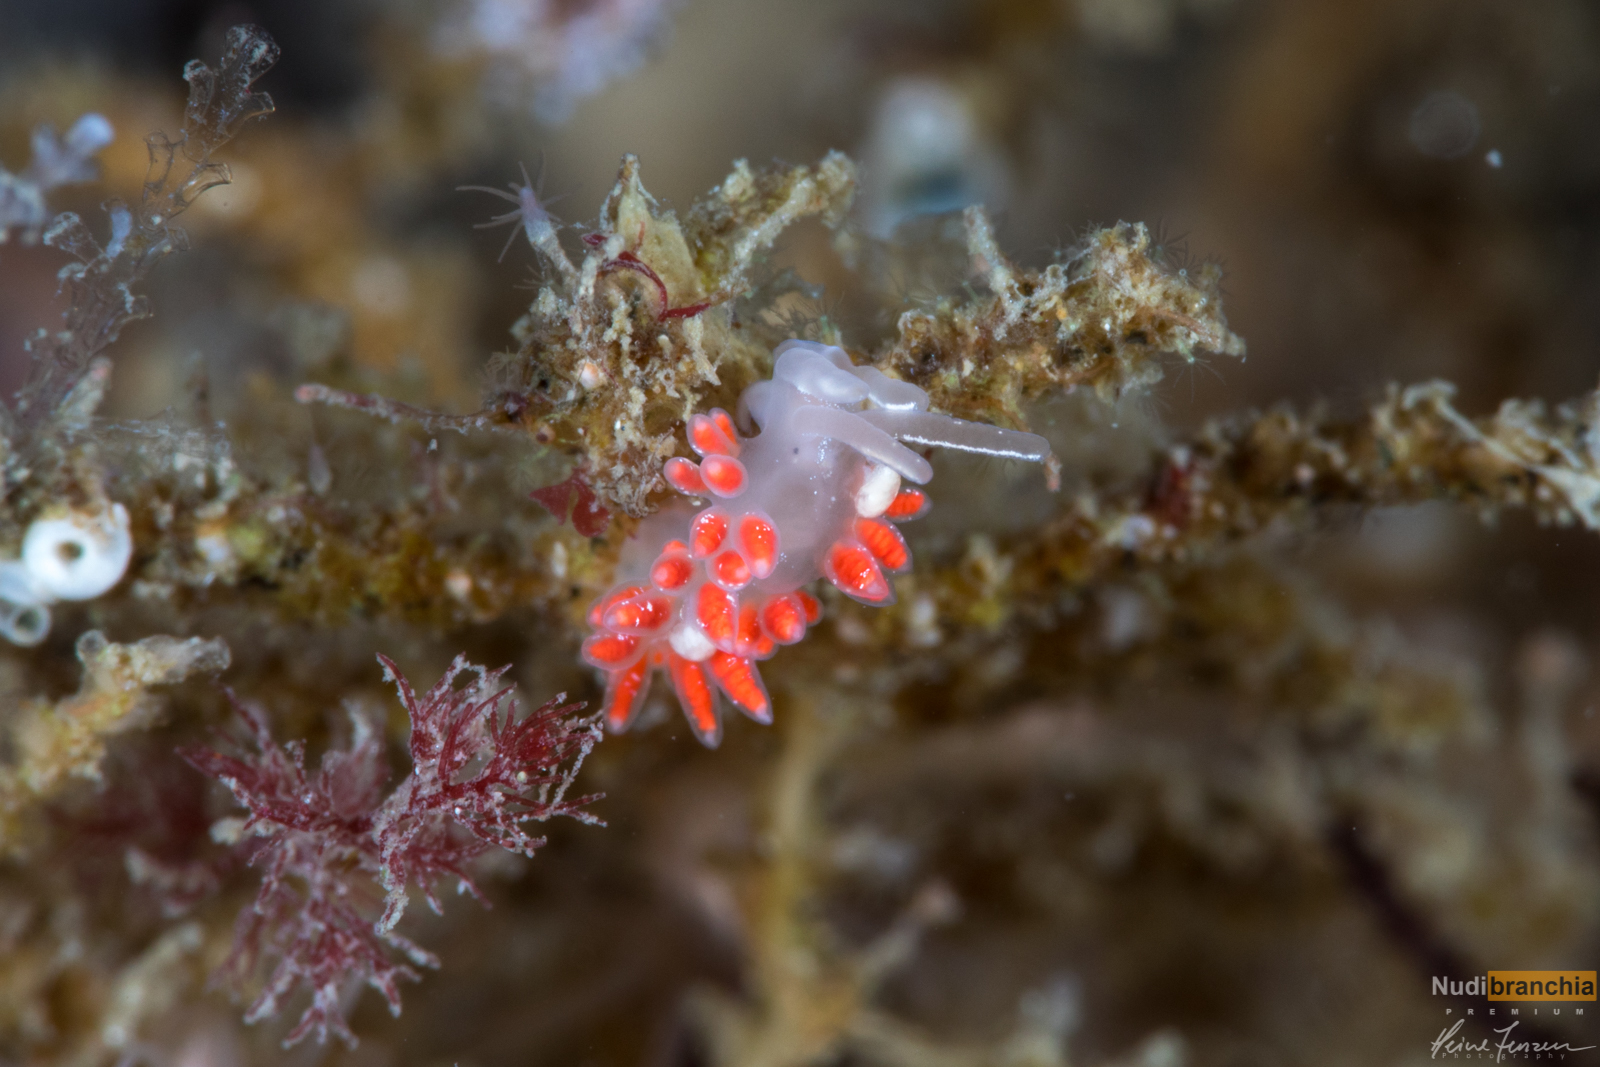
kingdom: Animalia
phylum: Mollusca
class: Gastropoda
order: Nudibranchia
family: Coryphellidae
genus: Coryphella
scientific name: Coryphella chriskaugei
